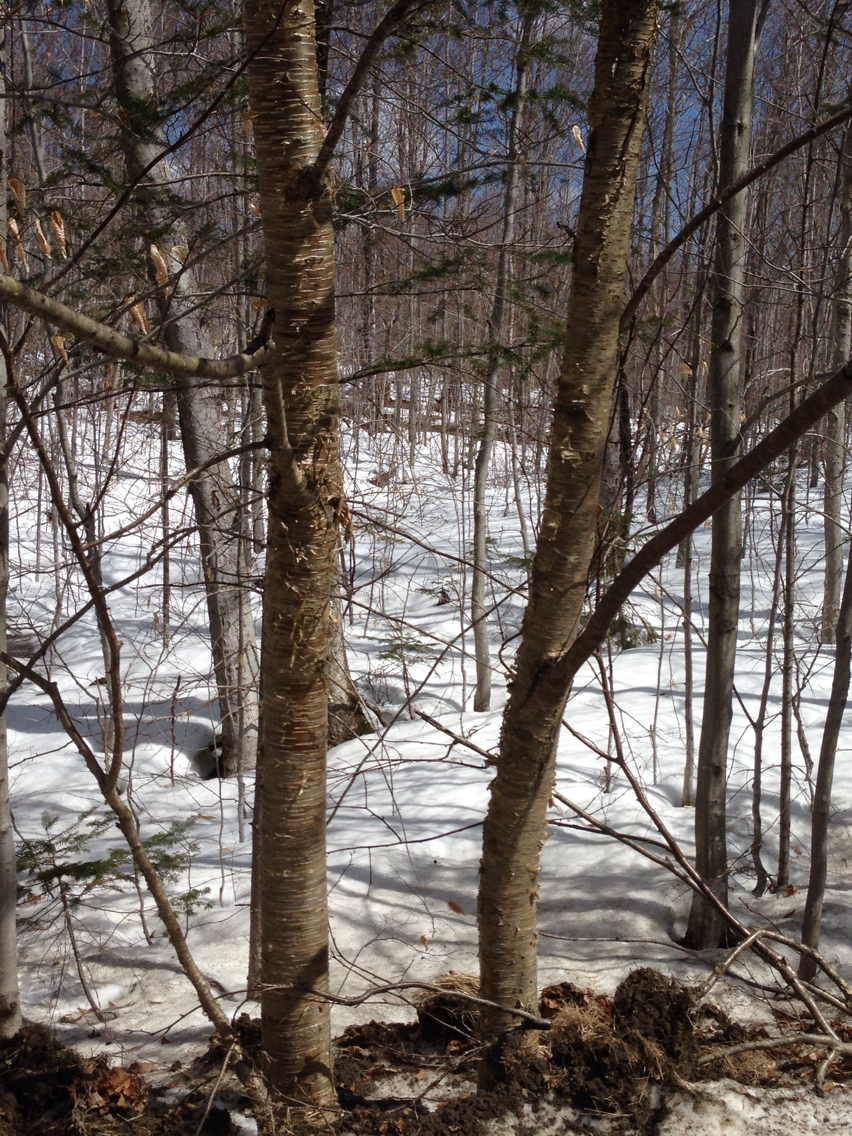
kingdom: Plantae
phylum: Tracheophyta
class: Magnoliopsida
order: Fagales
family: Betulaceae
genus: Betula
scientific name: Betula alleghaniensis
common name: Yellow birch
